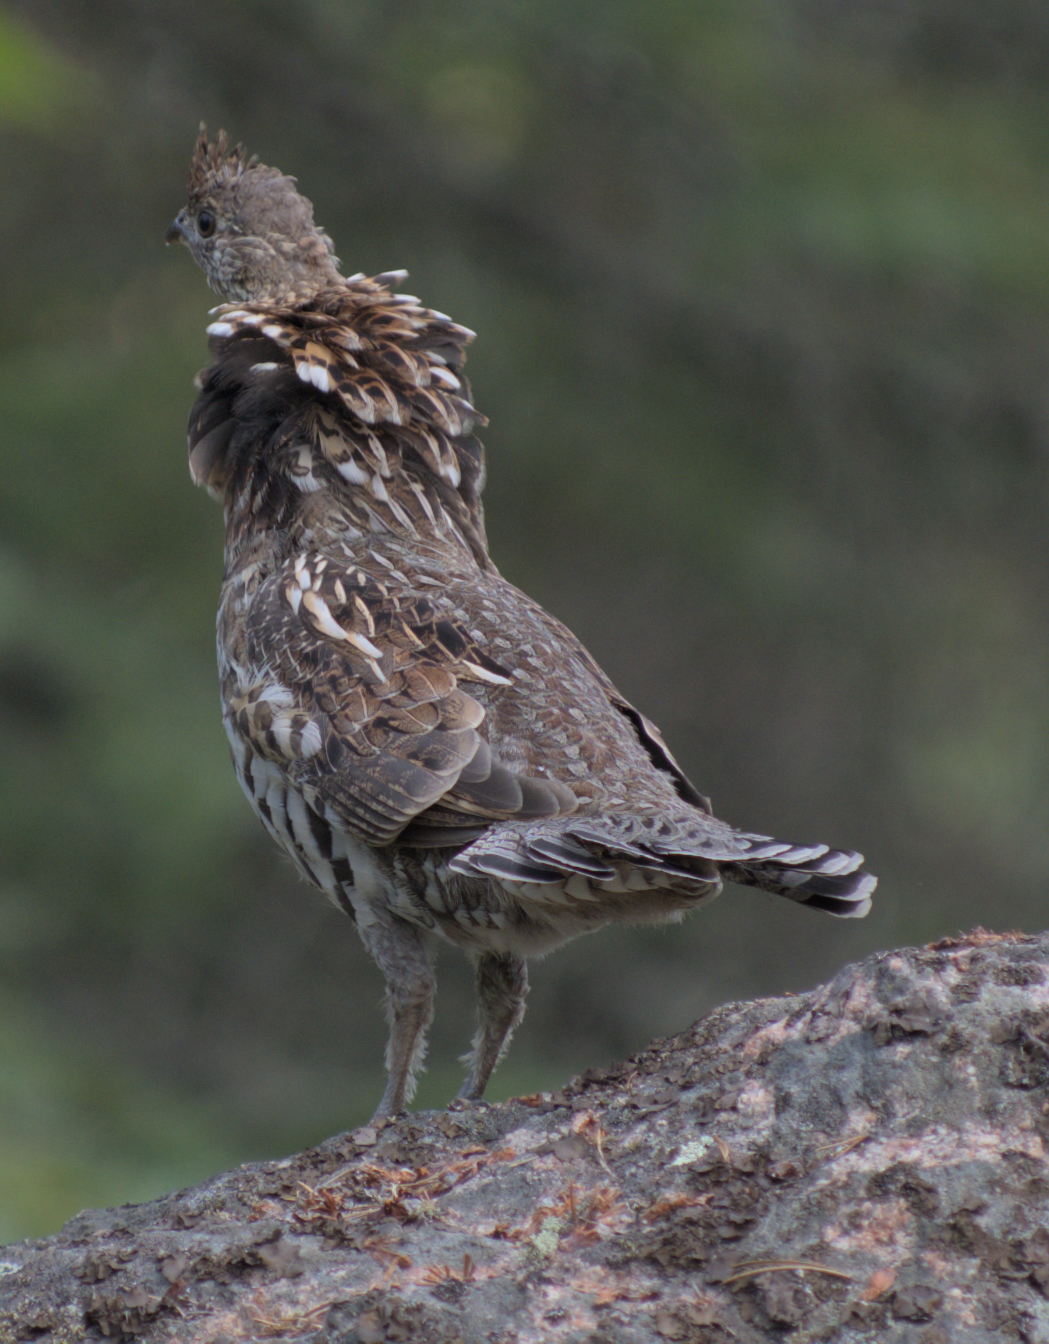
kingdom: Animalia
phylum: Chordata
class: Aves
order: Galliformes
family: Phasianidae
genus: Bonasa
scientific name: Bonasa umbellus
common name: Ruffed grouse
